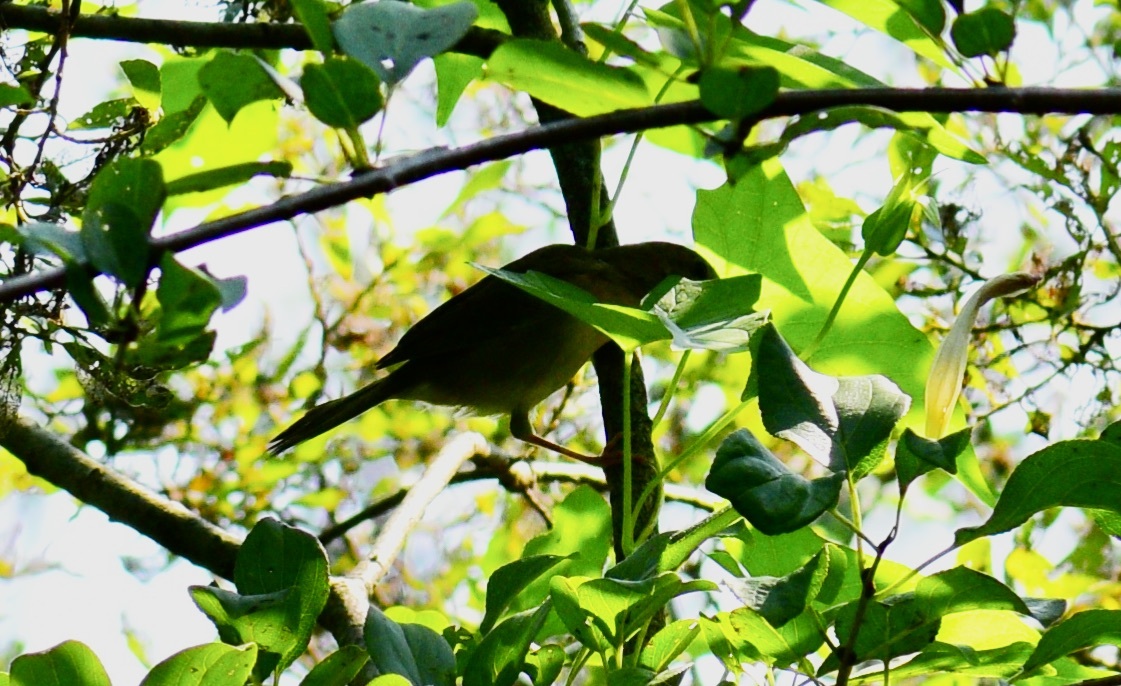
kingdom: Animalia
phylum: Chordata
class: Aves
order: Passeriformes
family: Parulidae
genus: Geothlypis
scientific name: Geothlypis trichas
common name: Common yellowthroat
